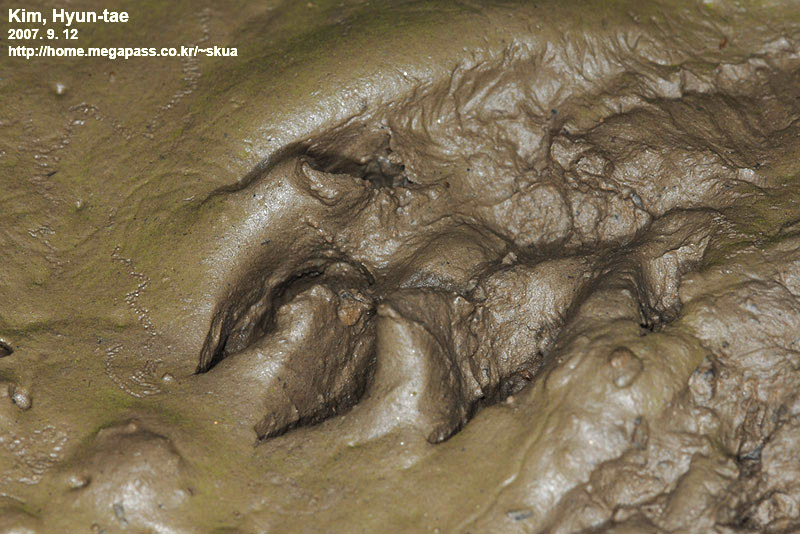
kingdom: Animalia
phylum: Chordata
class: Mammalia
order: Carnivora
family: Canidae
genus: Nyctereutes
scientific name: Nyctereutes procyonoides
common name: Raccoon dog
